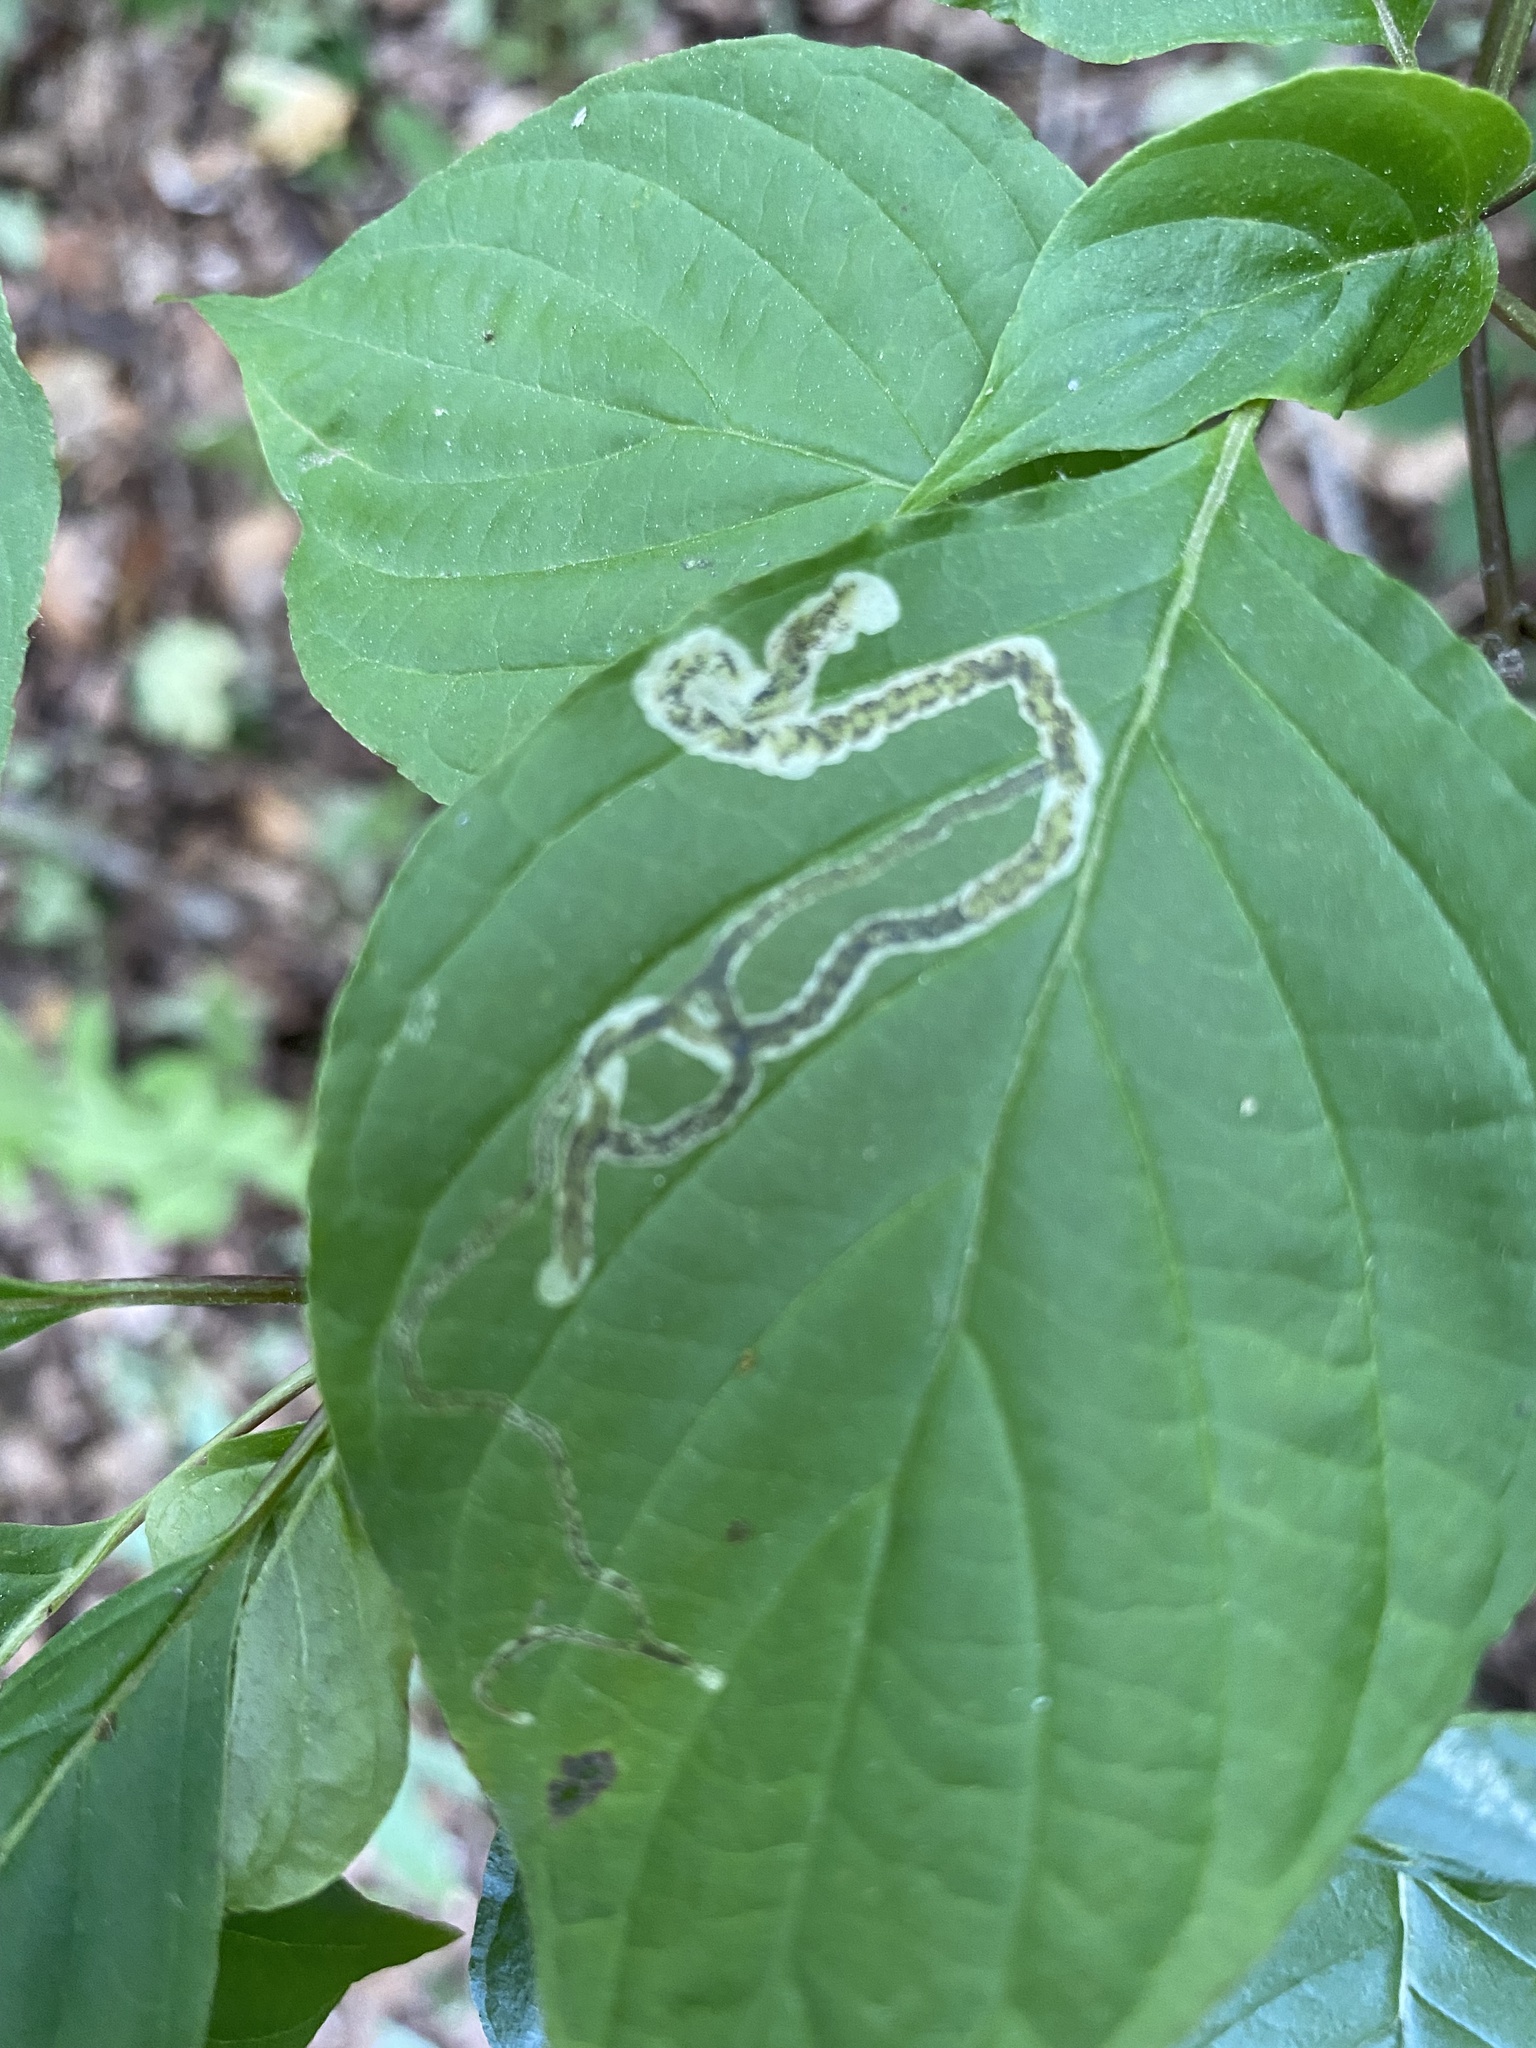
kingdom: Animalia
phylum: Arthropoda
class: Insecta
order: Diptera
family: Agromyzidae
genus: Phytomyza
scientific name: Phytomyza agromyzina
